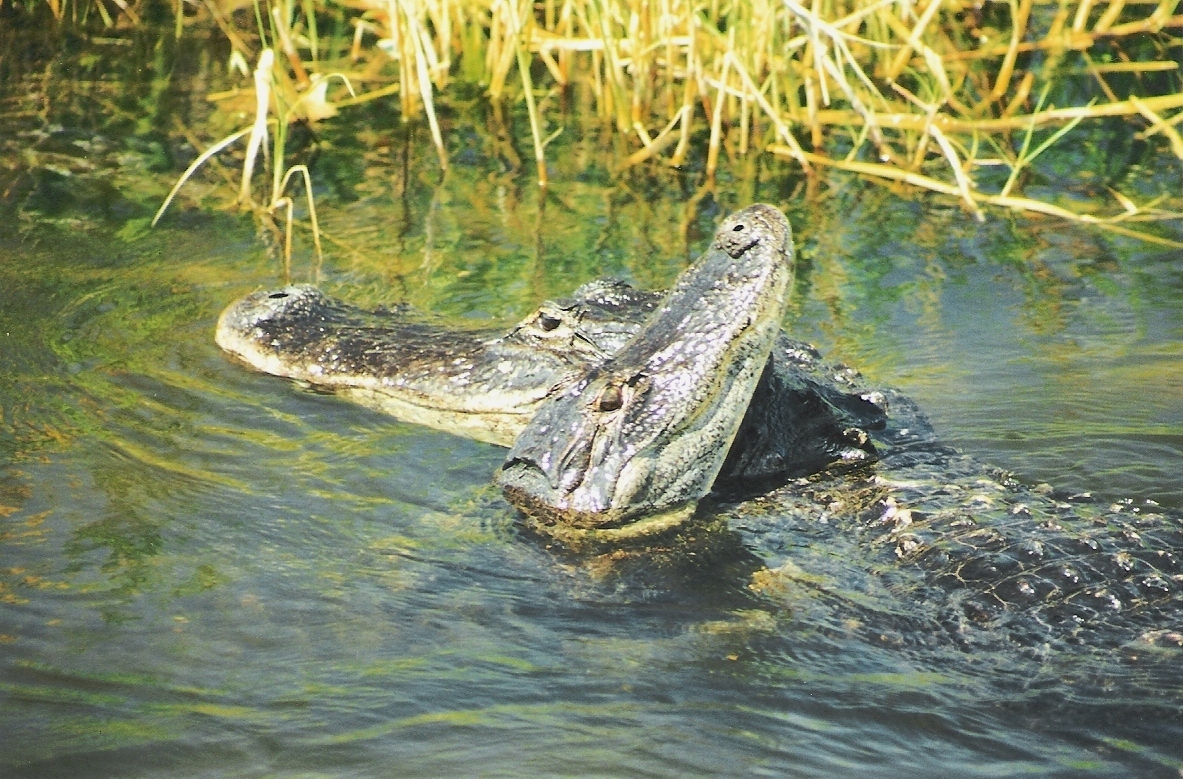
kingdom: Animalia
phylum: Chordata
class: Crocodylia
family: Alligatoridae
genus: Alligator
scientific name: Alligator mississippiensis
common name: American alligator
